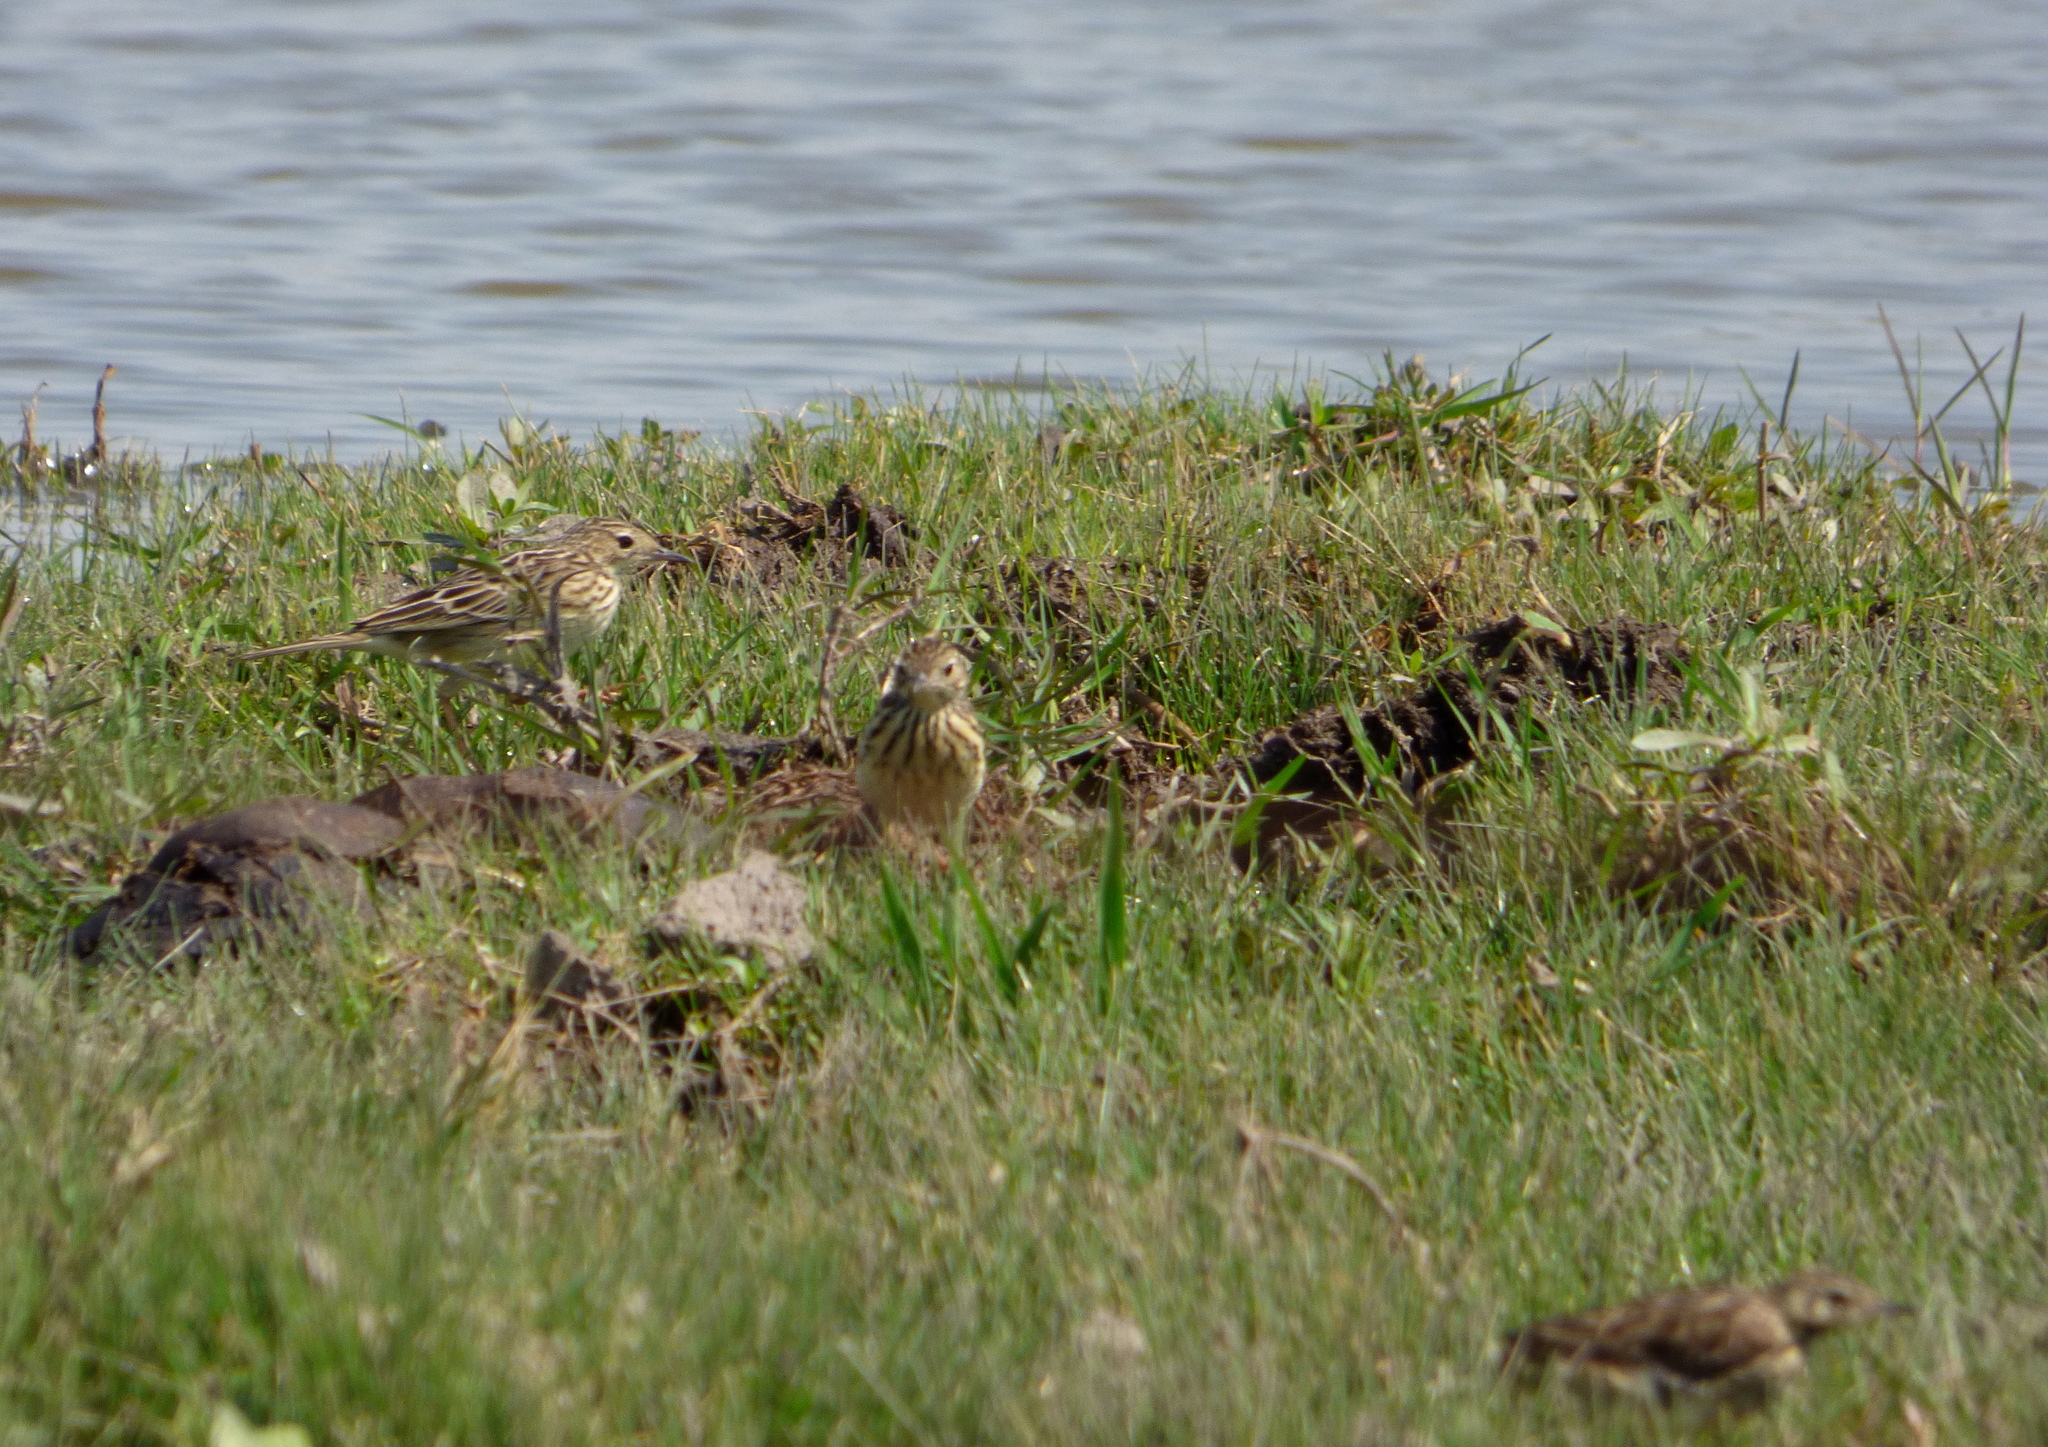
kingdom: Animalia
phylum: Chordata
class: Aves
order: Passeriformes
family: Motacillidae
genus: Anthus
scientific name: Anthus chii
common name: Yellowish pipit
